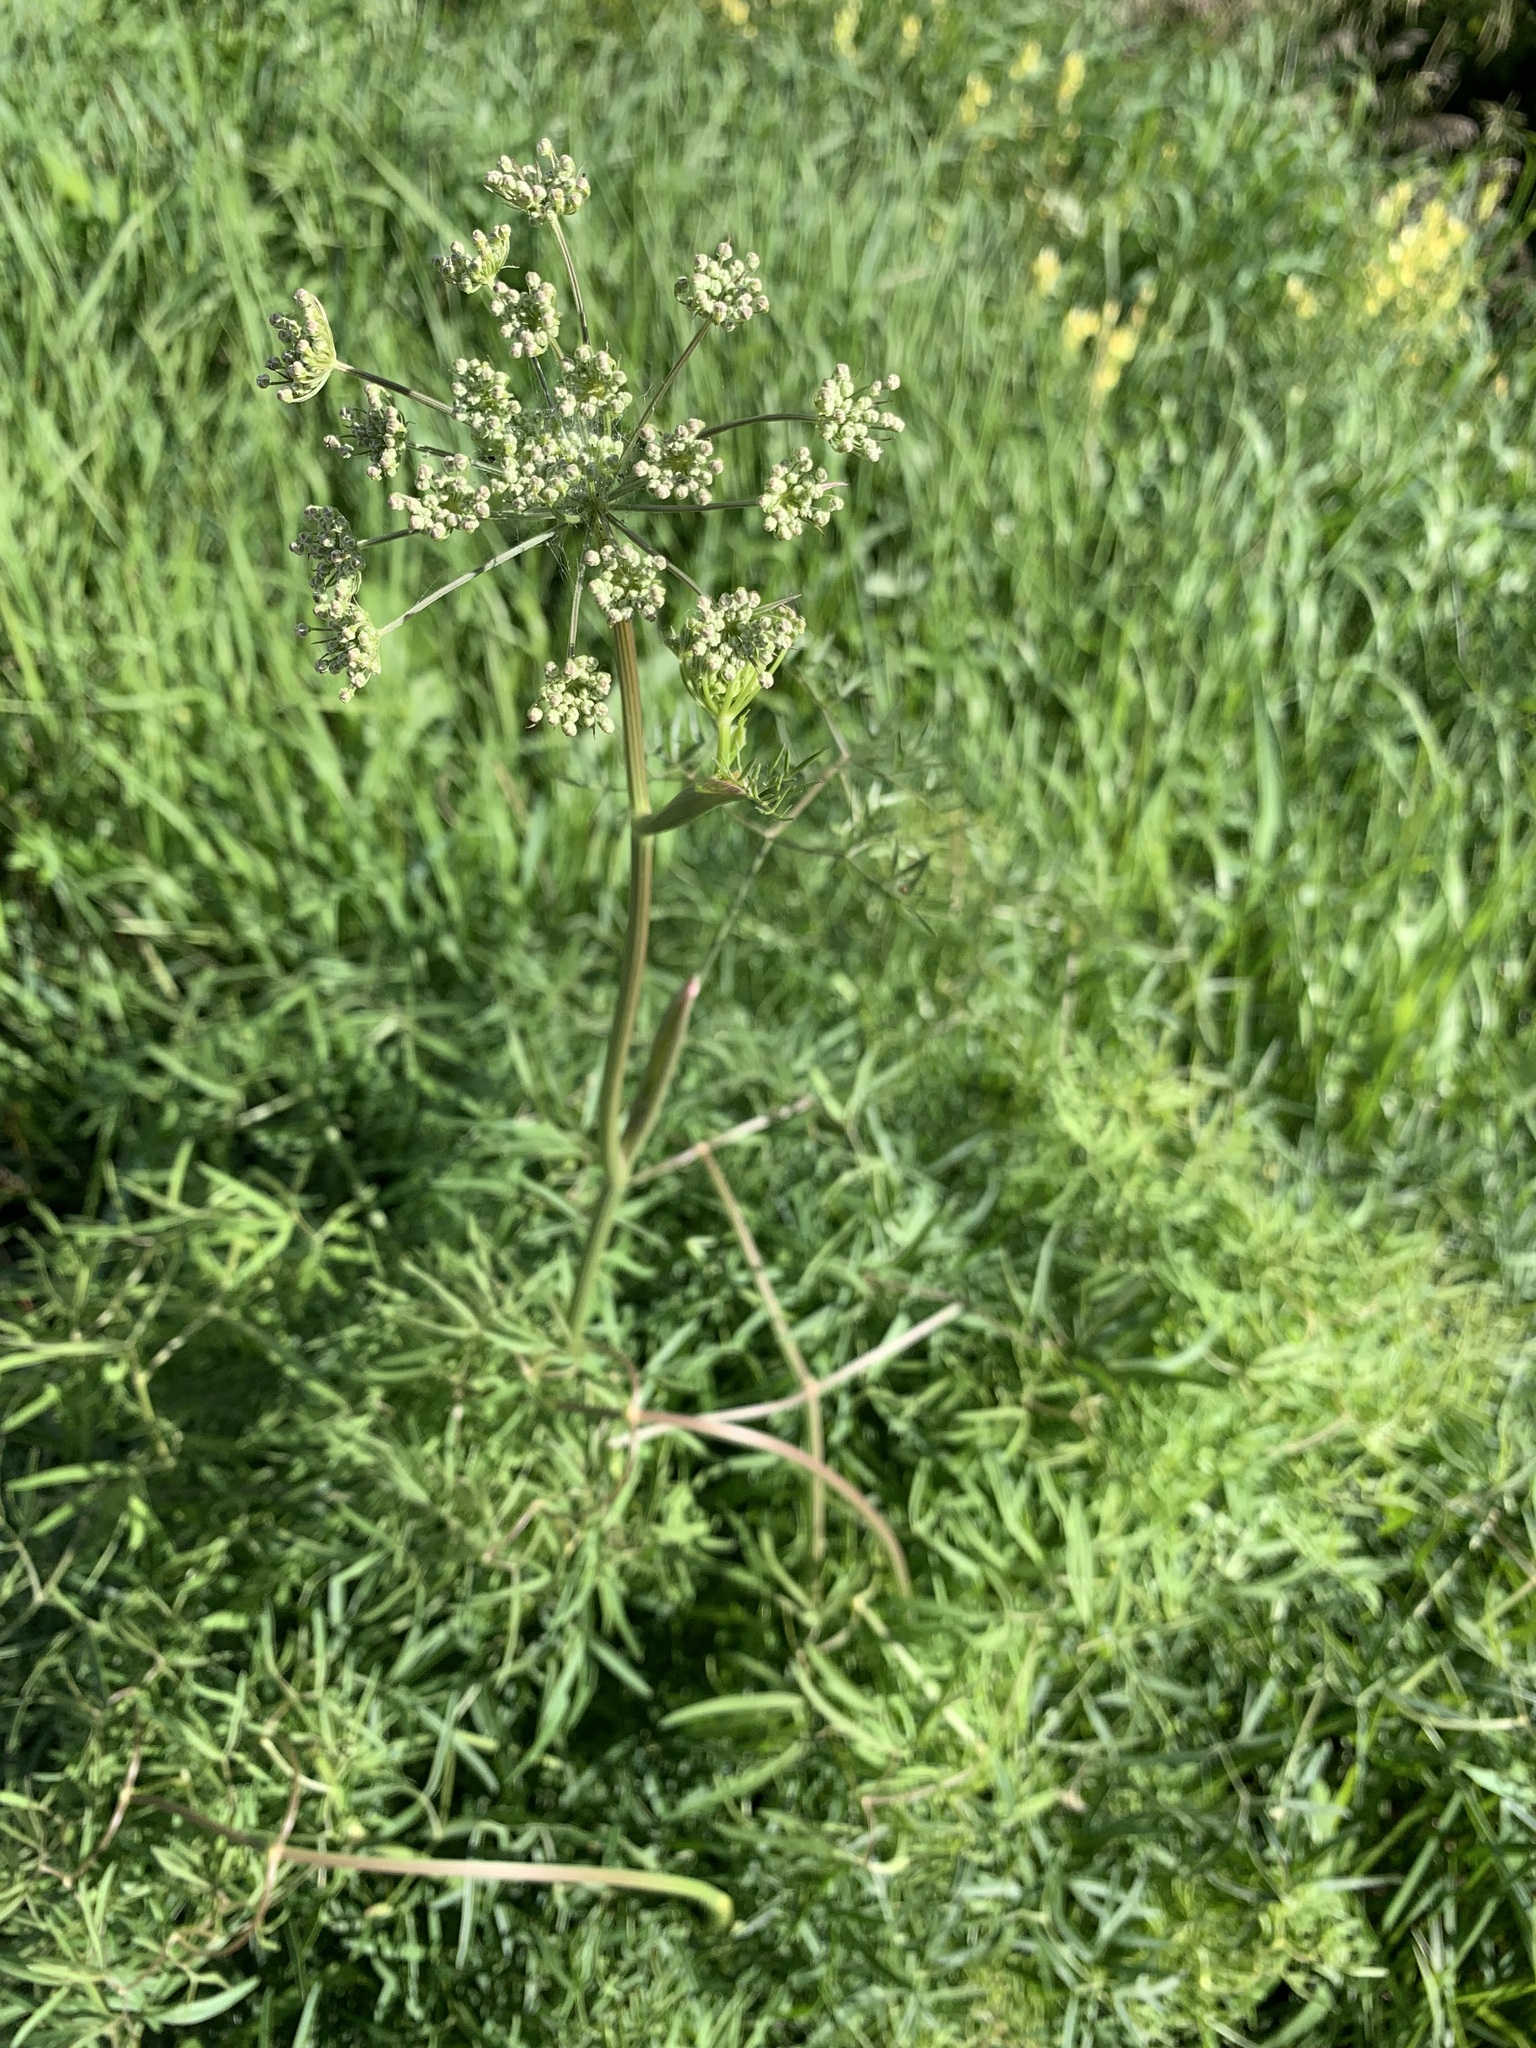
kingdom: Plantae
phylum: Tracheophyta
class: Magnoliopsida
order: Apiales
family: Apiaceae
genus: Cenolophium
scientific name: Cenolophium fischeri
